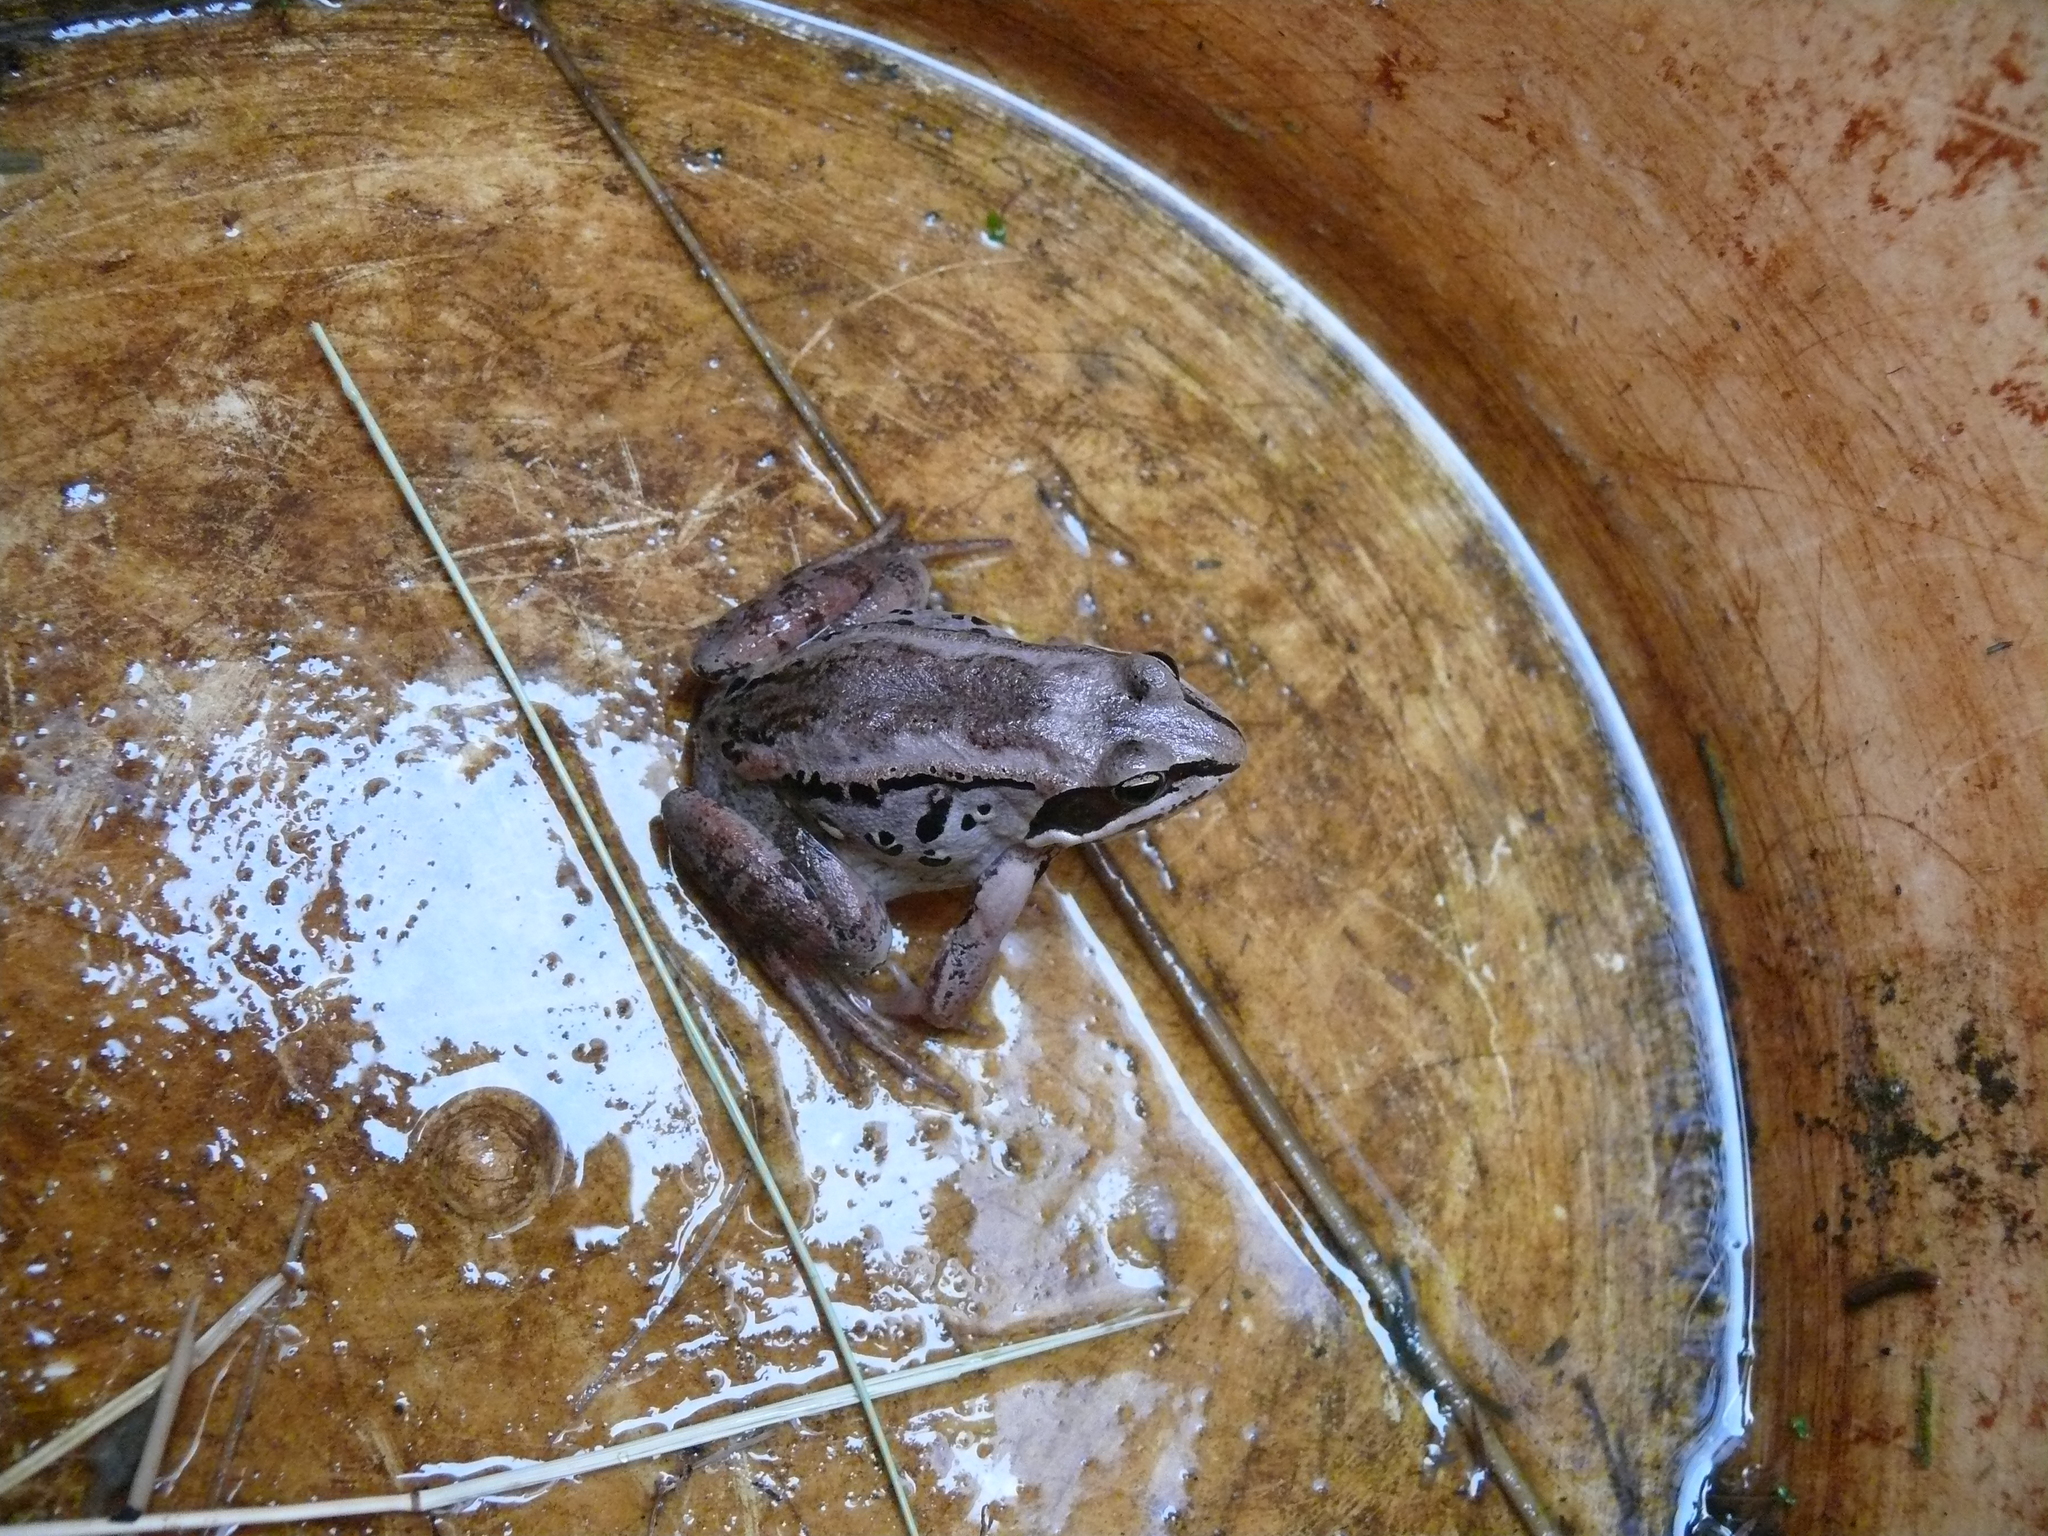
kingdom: Animalia
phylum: Chordata
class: Amphibia
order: Anura
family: Ranidae
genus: Lithobates
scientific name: Lithobates sylvaticus
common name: Wood frog
